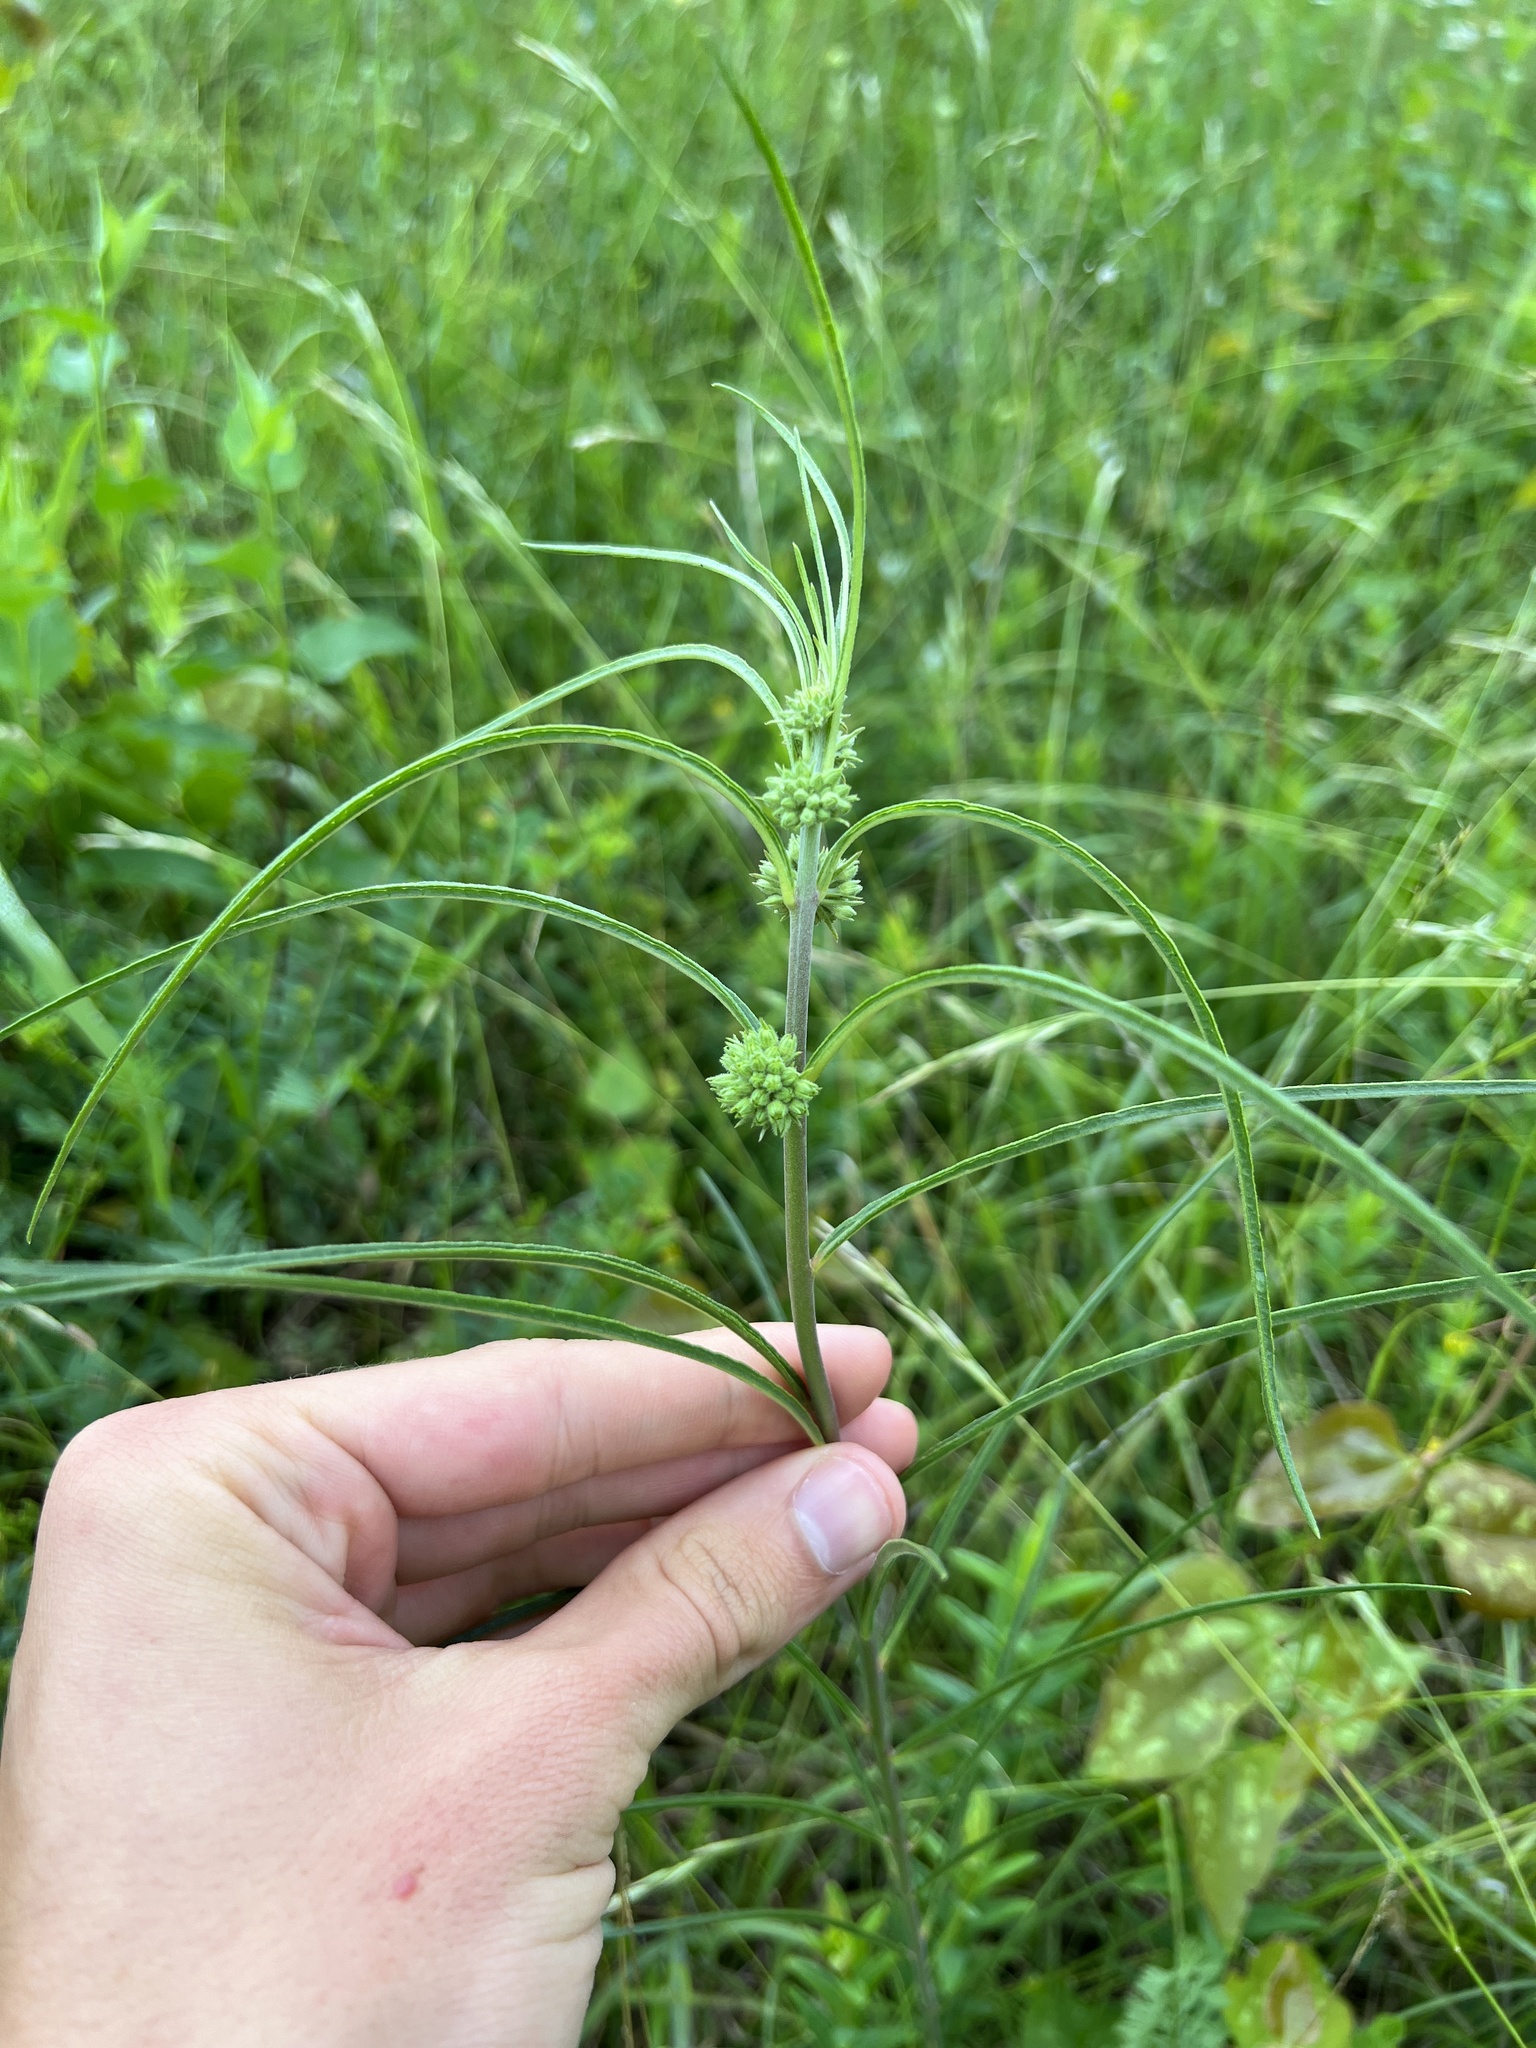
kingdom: Plantae
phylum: Tracheophyta
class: Magnoliopsida
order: Gentianales
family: Apocynaceae
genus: Asclepias
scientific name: Asclepias stenophylla
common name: Narrow-leaf milkweed
